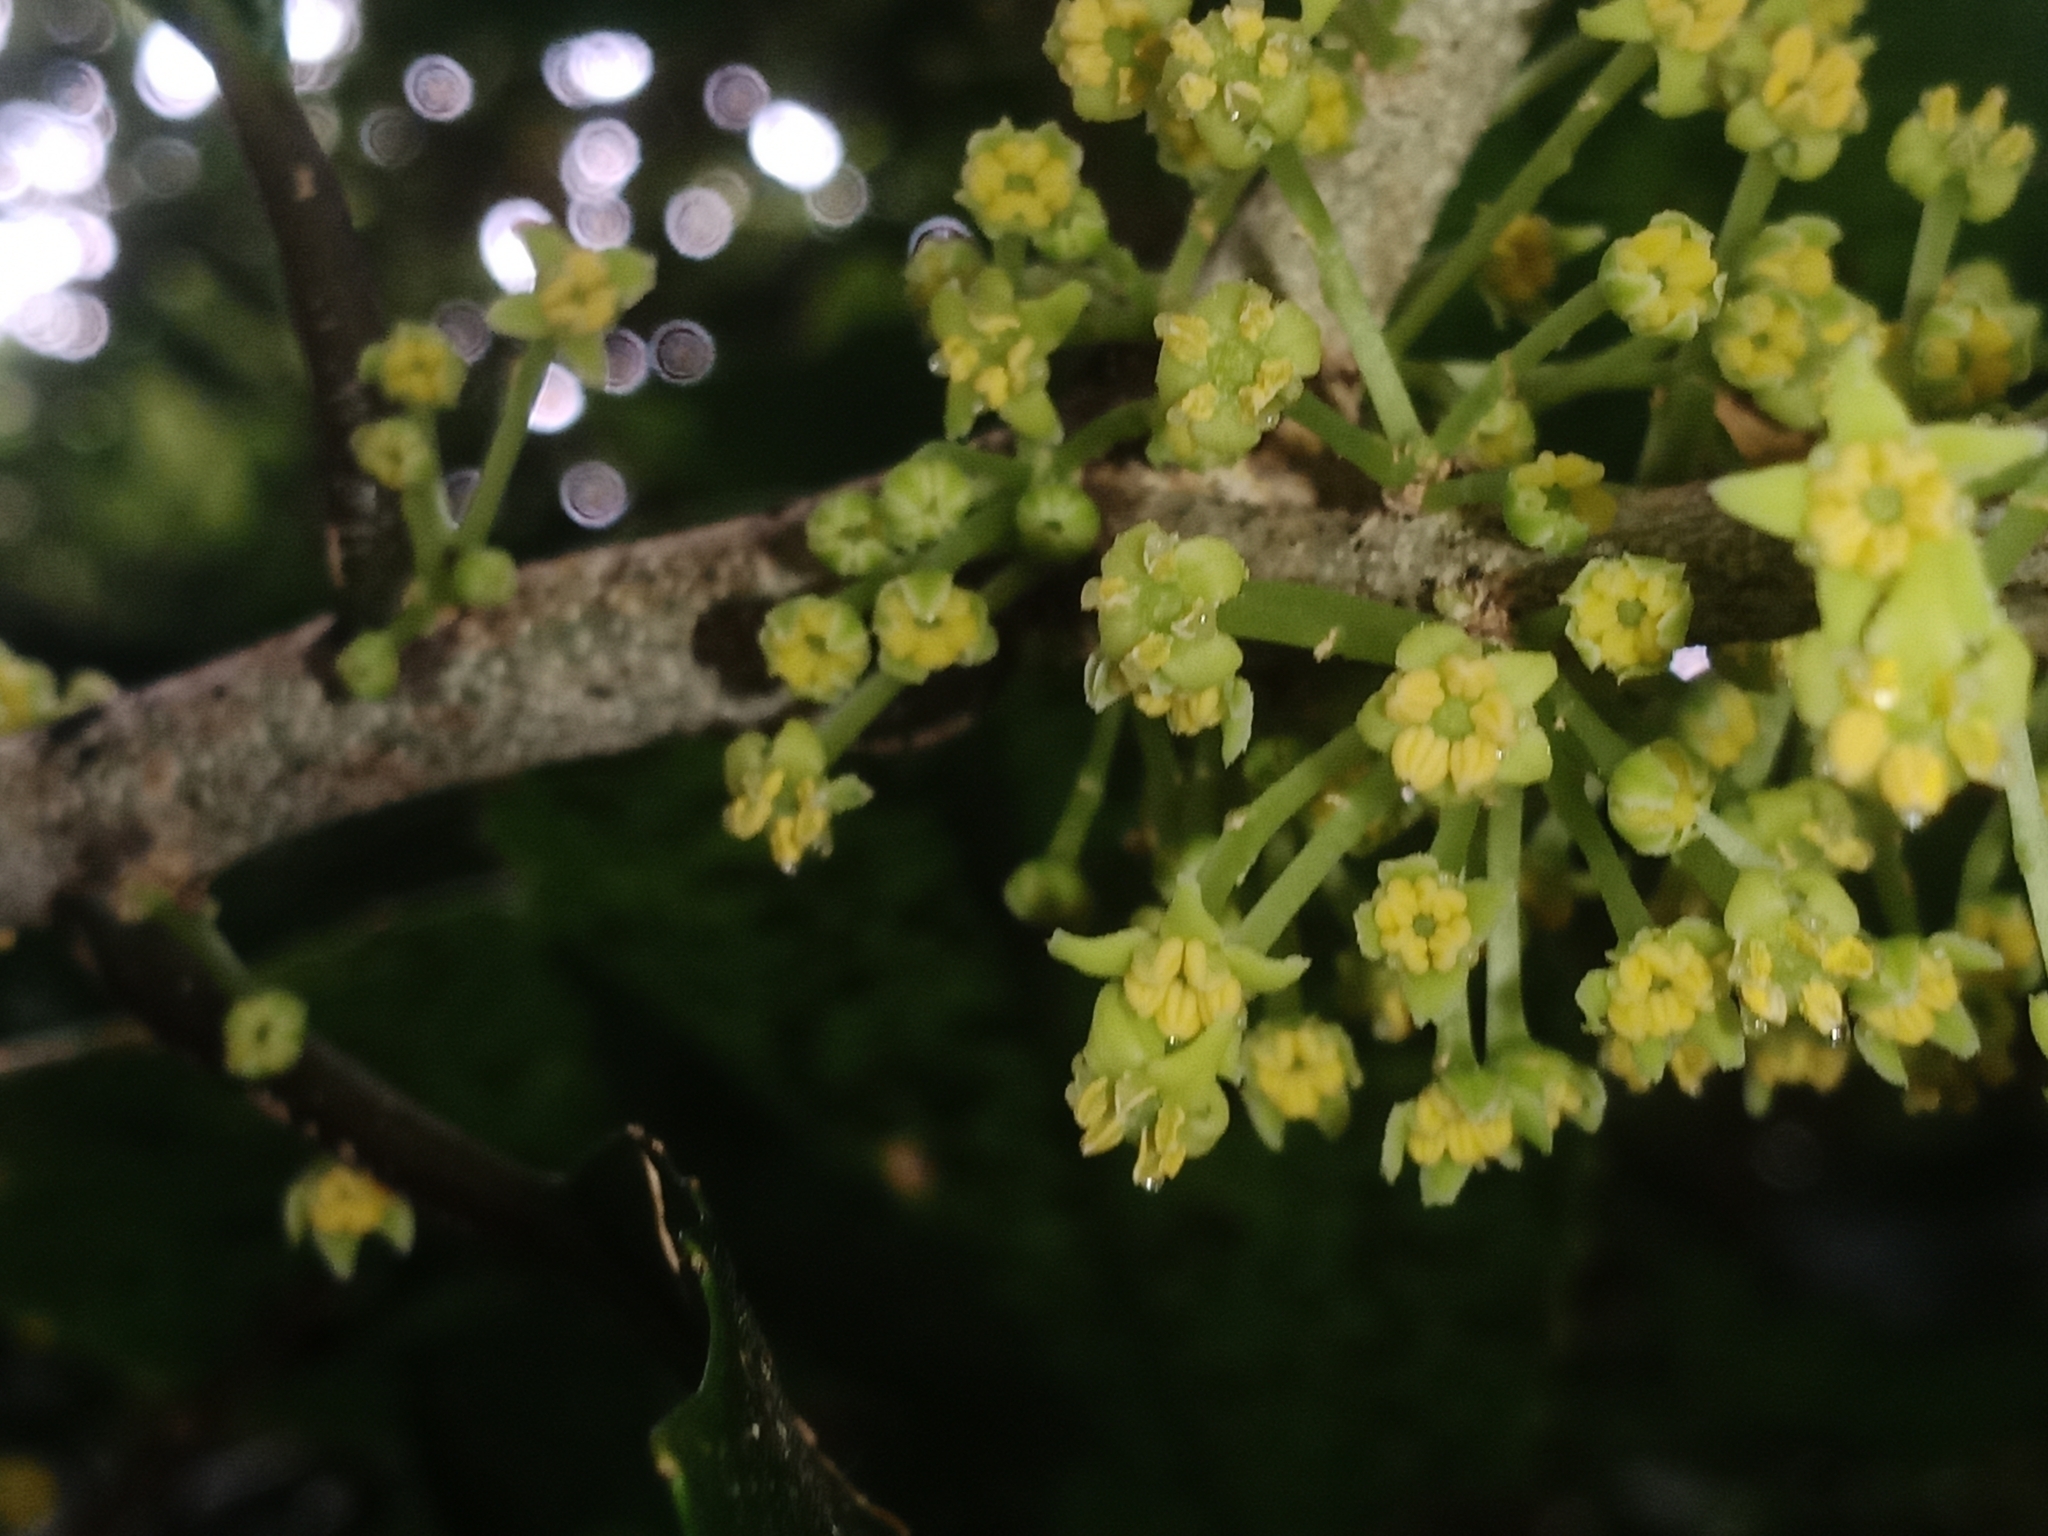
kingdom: Plantae
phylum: Tracheophyta
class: Magnoliopsida
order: Malpighiales
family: Violaceae
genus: Melicytus
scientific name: Melicytus ramiflorus
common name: Mahoe
